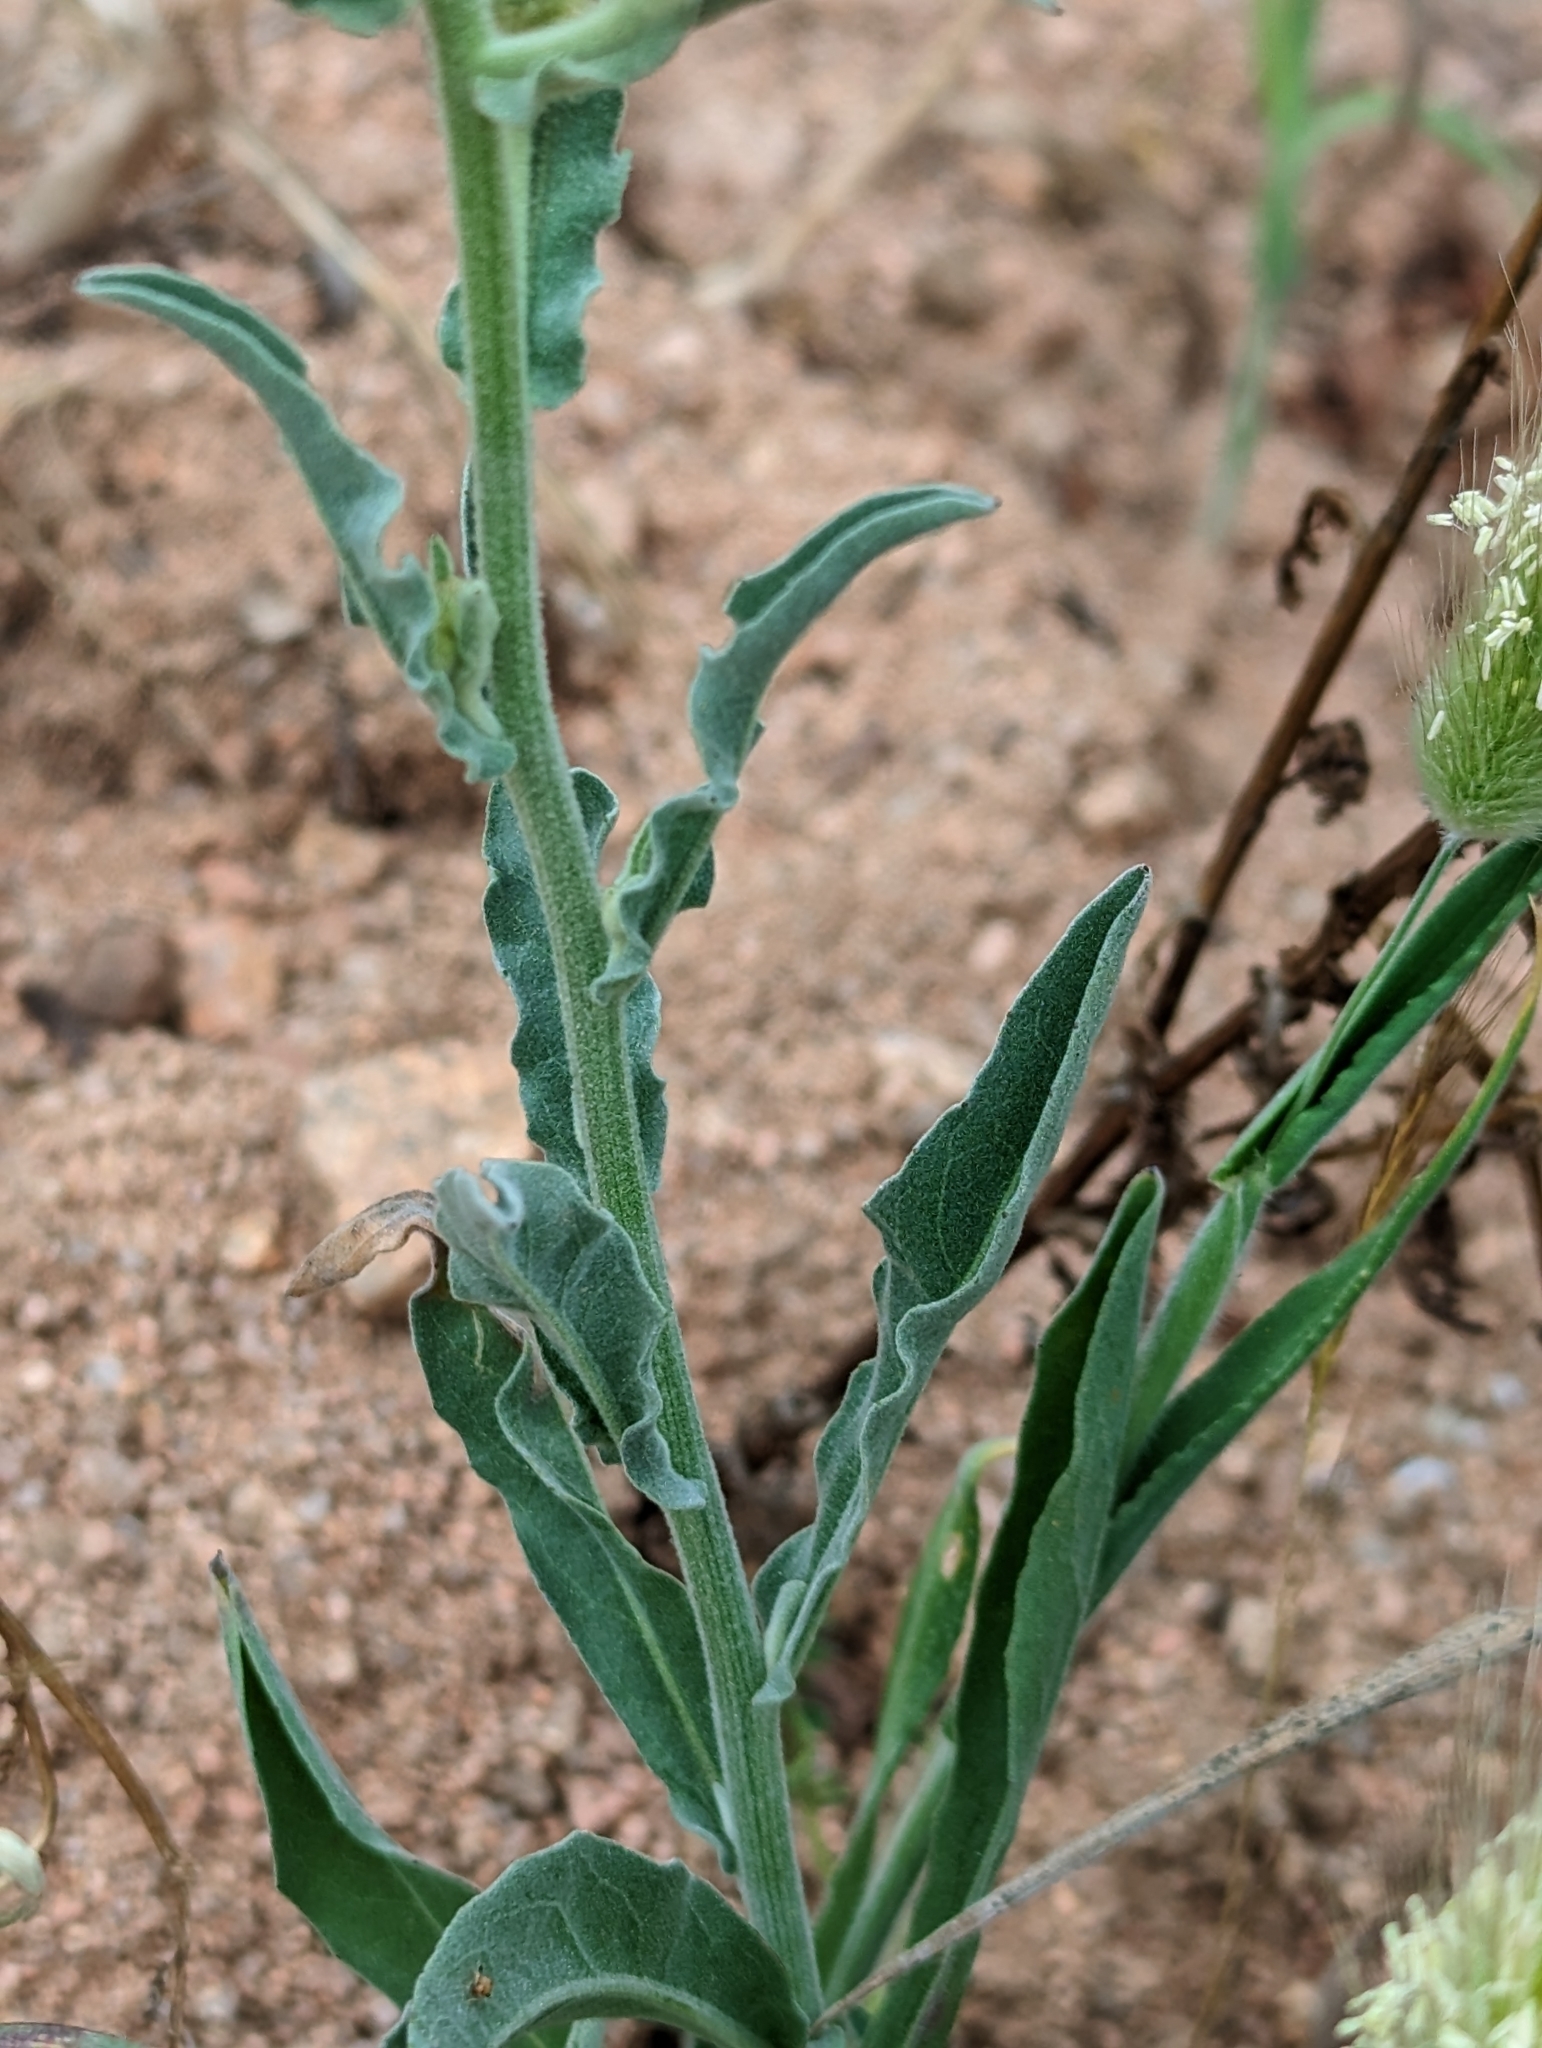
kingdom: Plantae
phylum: Tracheophyta
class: Magnoliopsida
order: Asterales
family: Asteraceae
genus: Andryala
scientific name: Andryala cossyrensis
